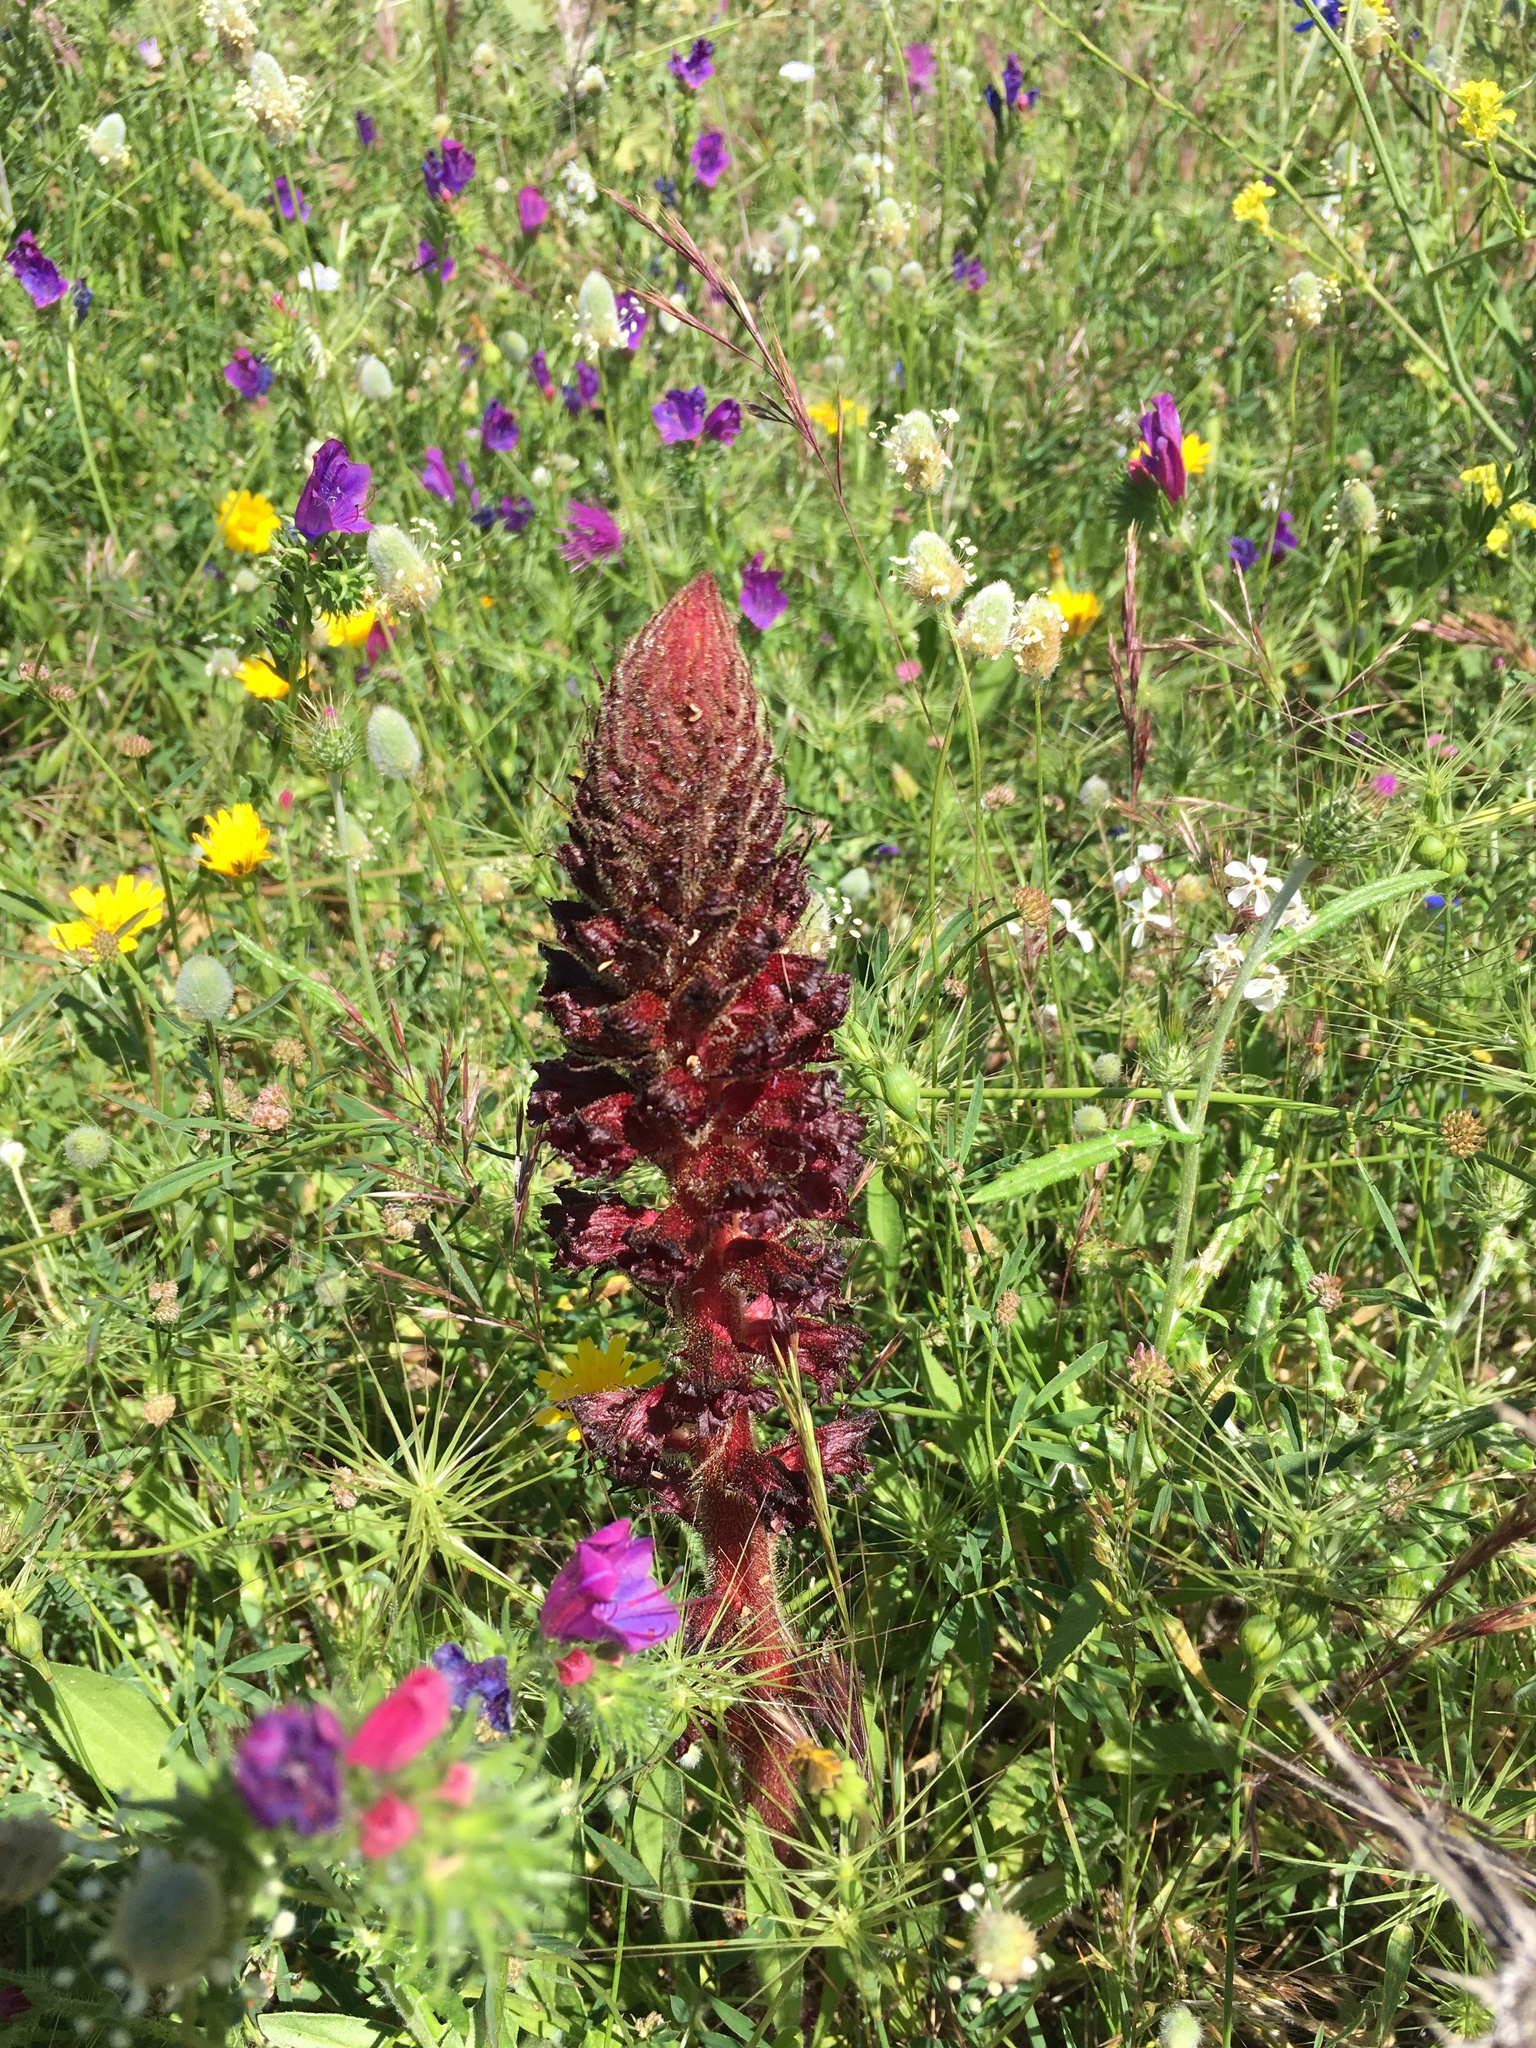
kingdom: Plantae
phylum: Tracheophyta
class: Magnoliopsida
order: Lamiales
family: Orobanchaceae
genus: Orobanche
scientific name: Orobanche foetida
